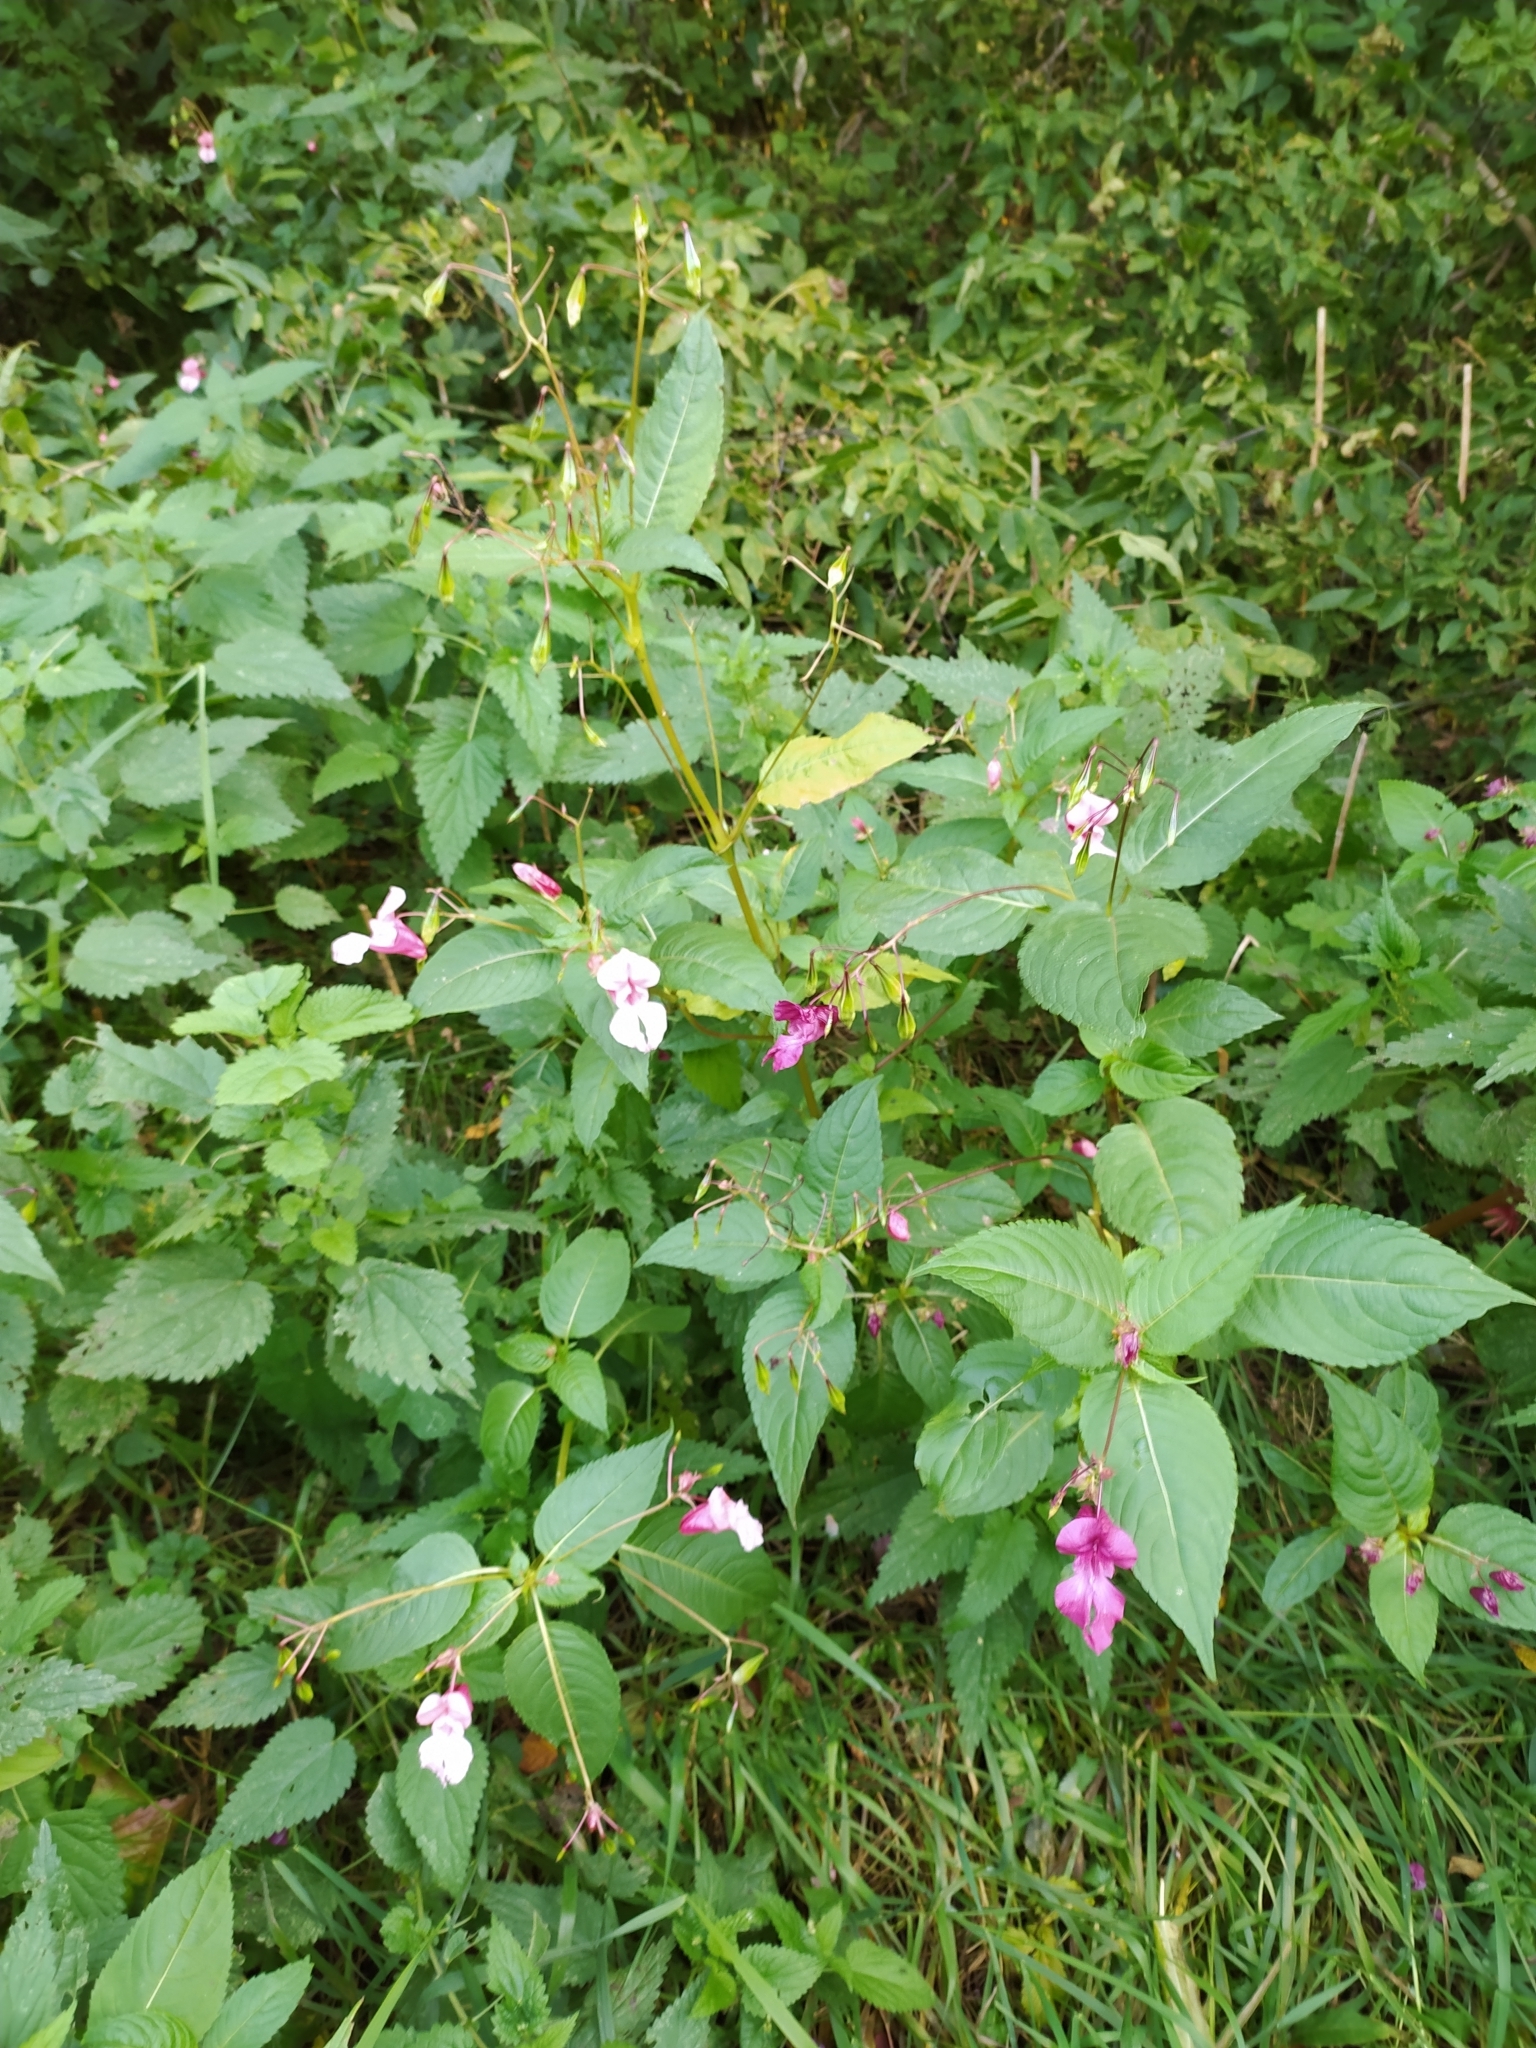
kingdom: Plantae
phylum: Tracheophyta
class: Magnoliopsida
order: Ericales
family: Balsaminaceae
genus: Impatiens
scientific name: Impatiens glandulifera
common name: Himalayan balsam
